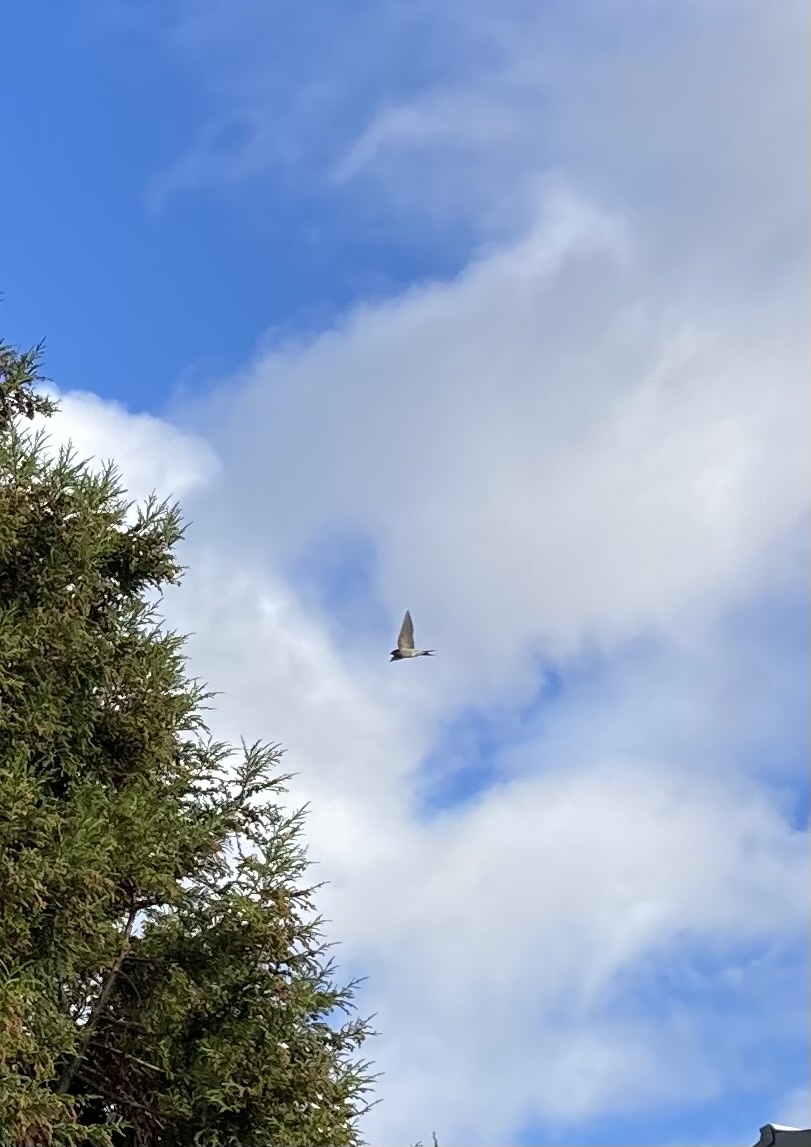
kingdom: Animalia
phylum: Chordata
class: Aves
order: Passeriformes
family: Hirundinidae
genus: Hirundo
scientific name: Hirundo neoxena
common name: Welcome swallow
